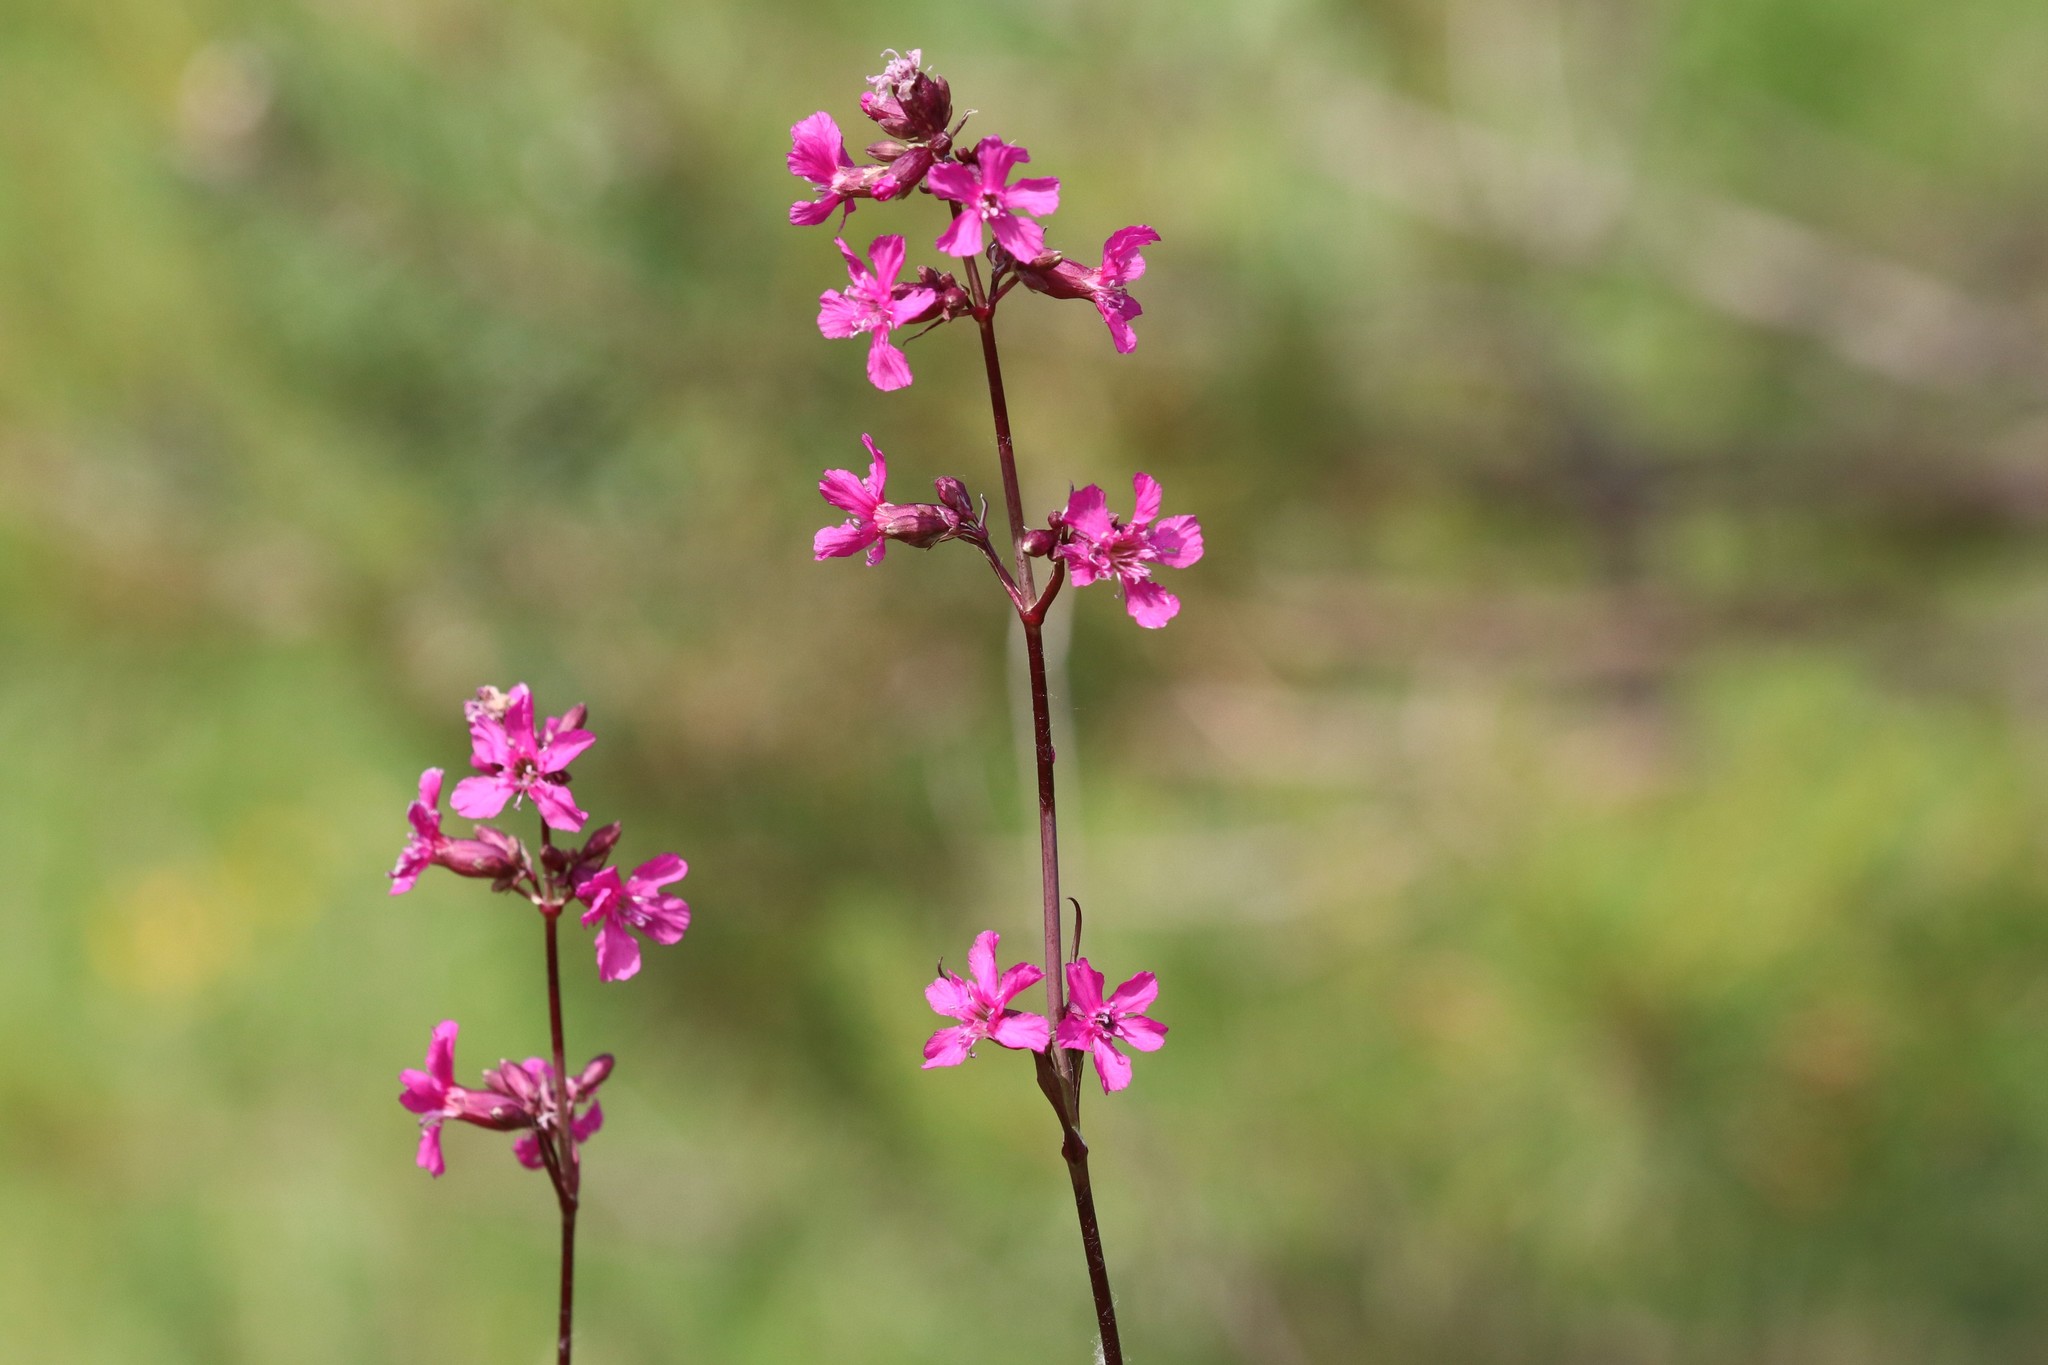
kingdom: Plantae
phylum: Tracheophyta
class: Magnoliopsida
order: Caryophyllales
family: Caryophyllaceae
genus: Viscaria
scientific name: Viscaria vulgaris
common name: Clammy campion
